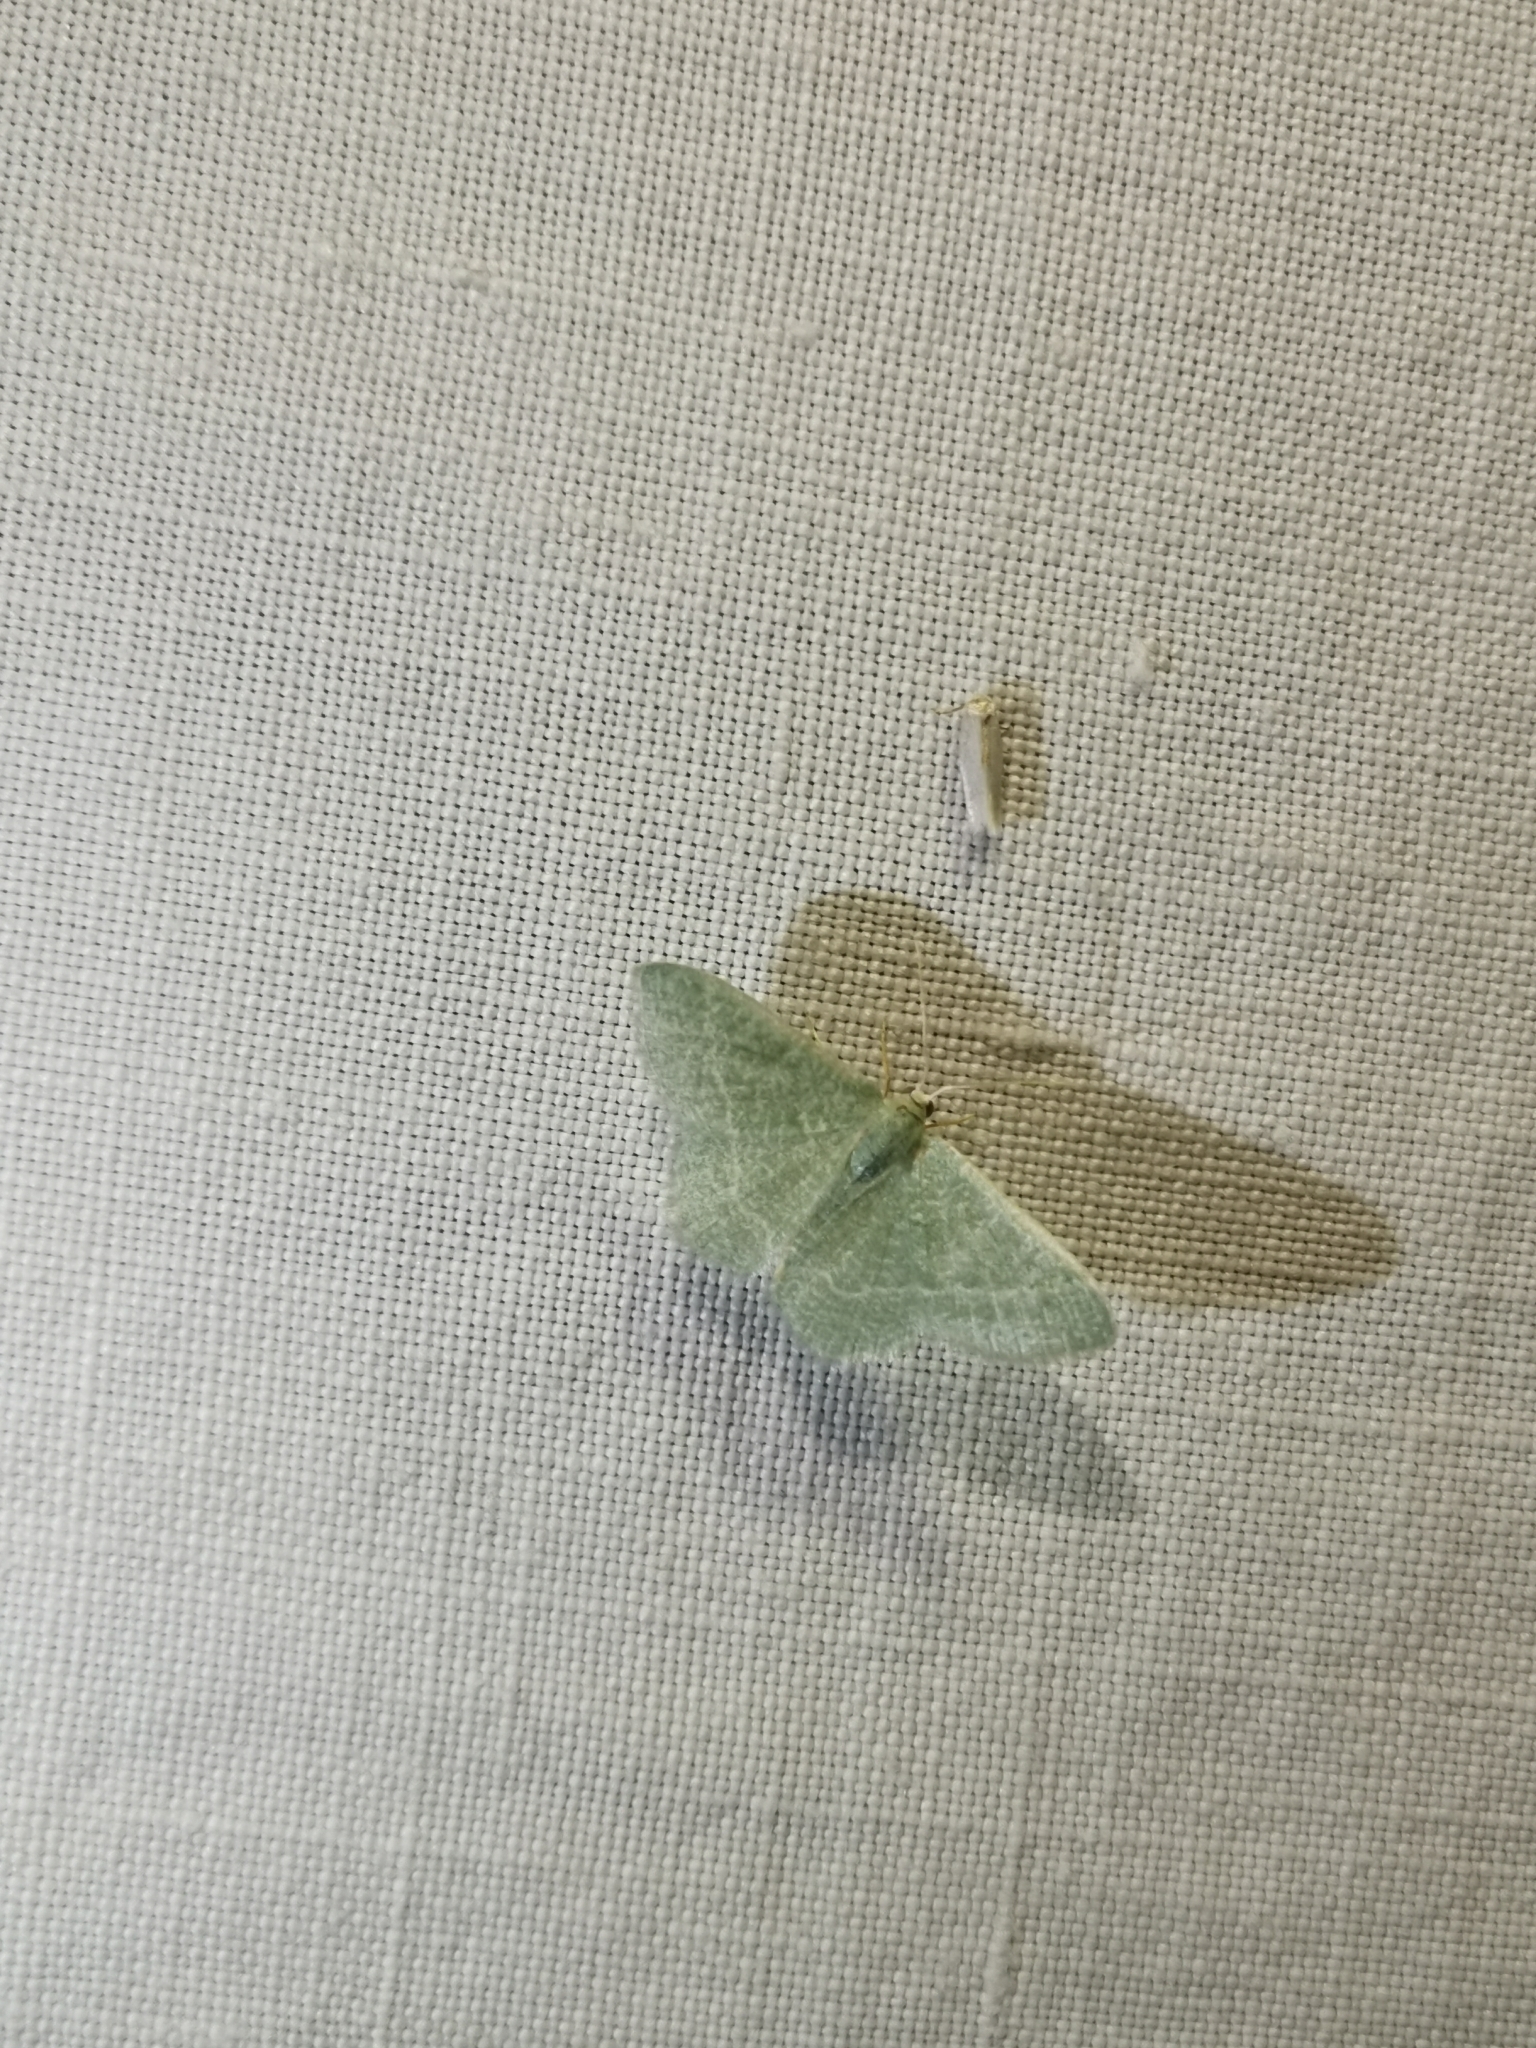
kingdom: Animalia
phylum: Arthropoda
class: Insecta
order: Lepidoptera
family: Geometridae
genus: Chlorissa
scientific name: Chlorissa etruscaria
